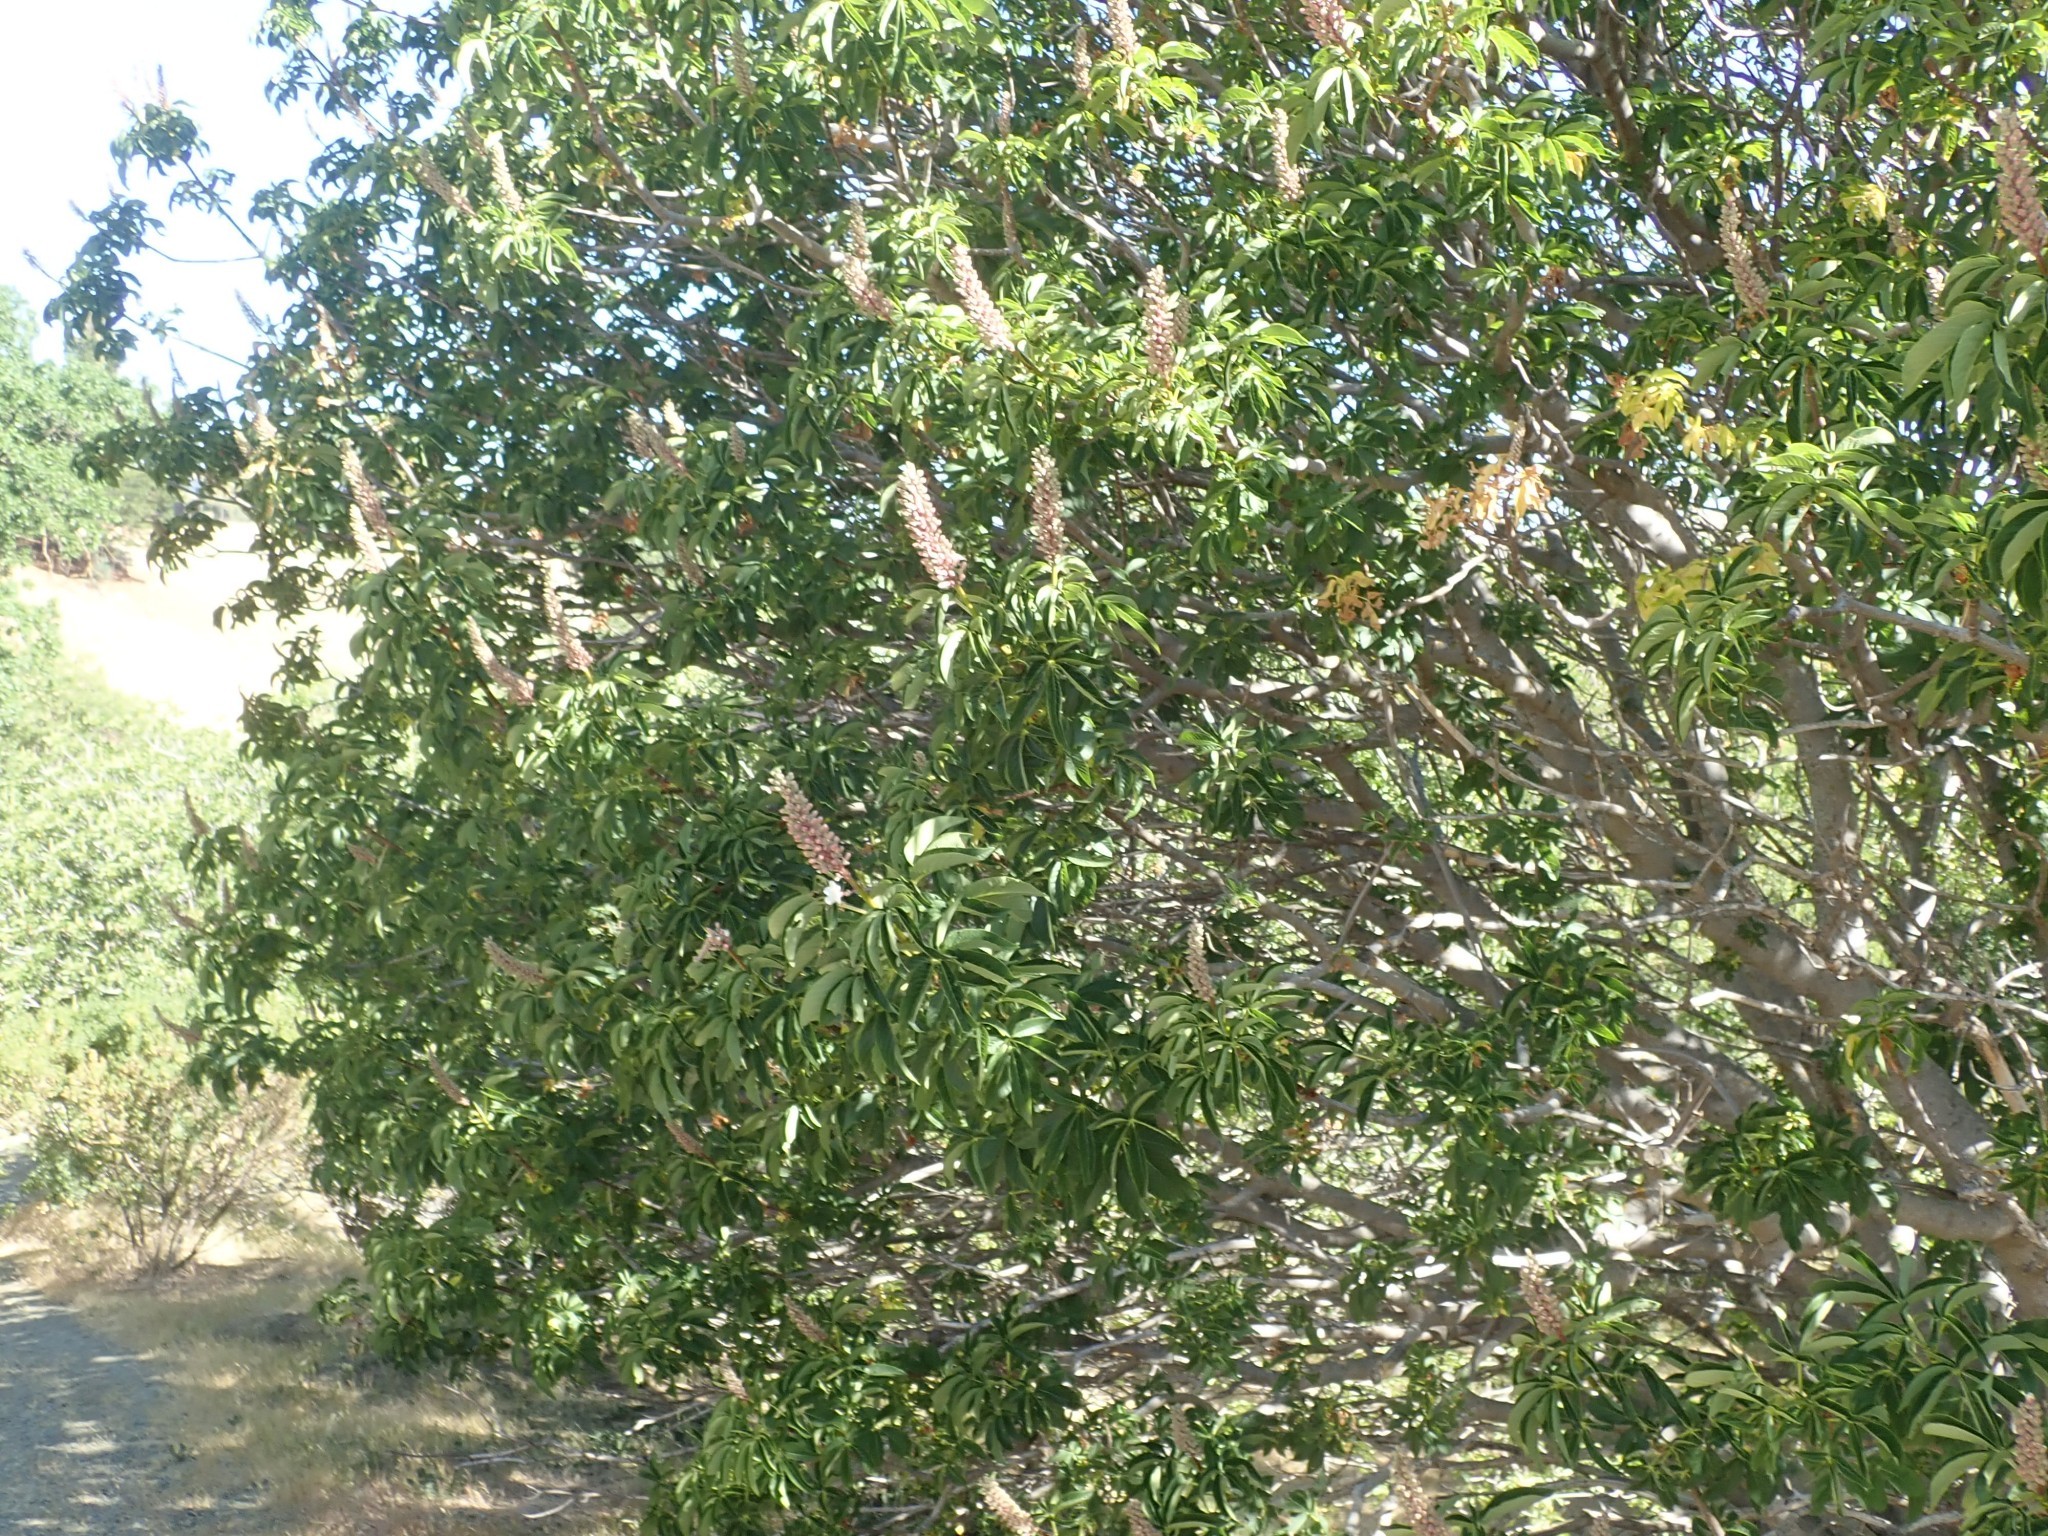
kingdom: Plantae
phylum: Tracheophyta
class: Magnoliopsida
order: Sapindales
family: Sapindaceae
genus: Aesculus
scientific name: Aesculus californica
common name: California buckeye
